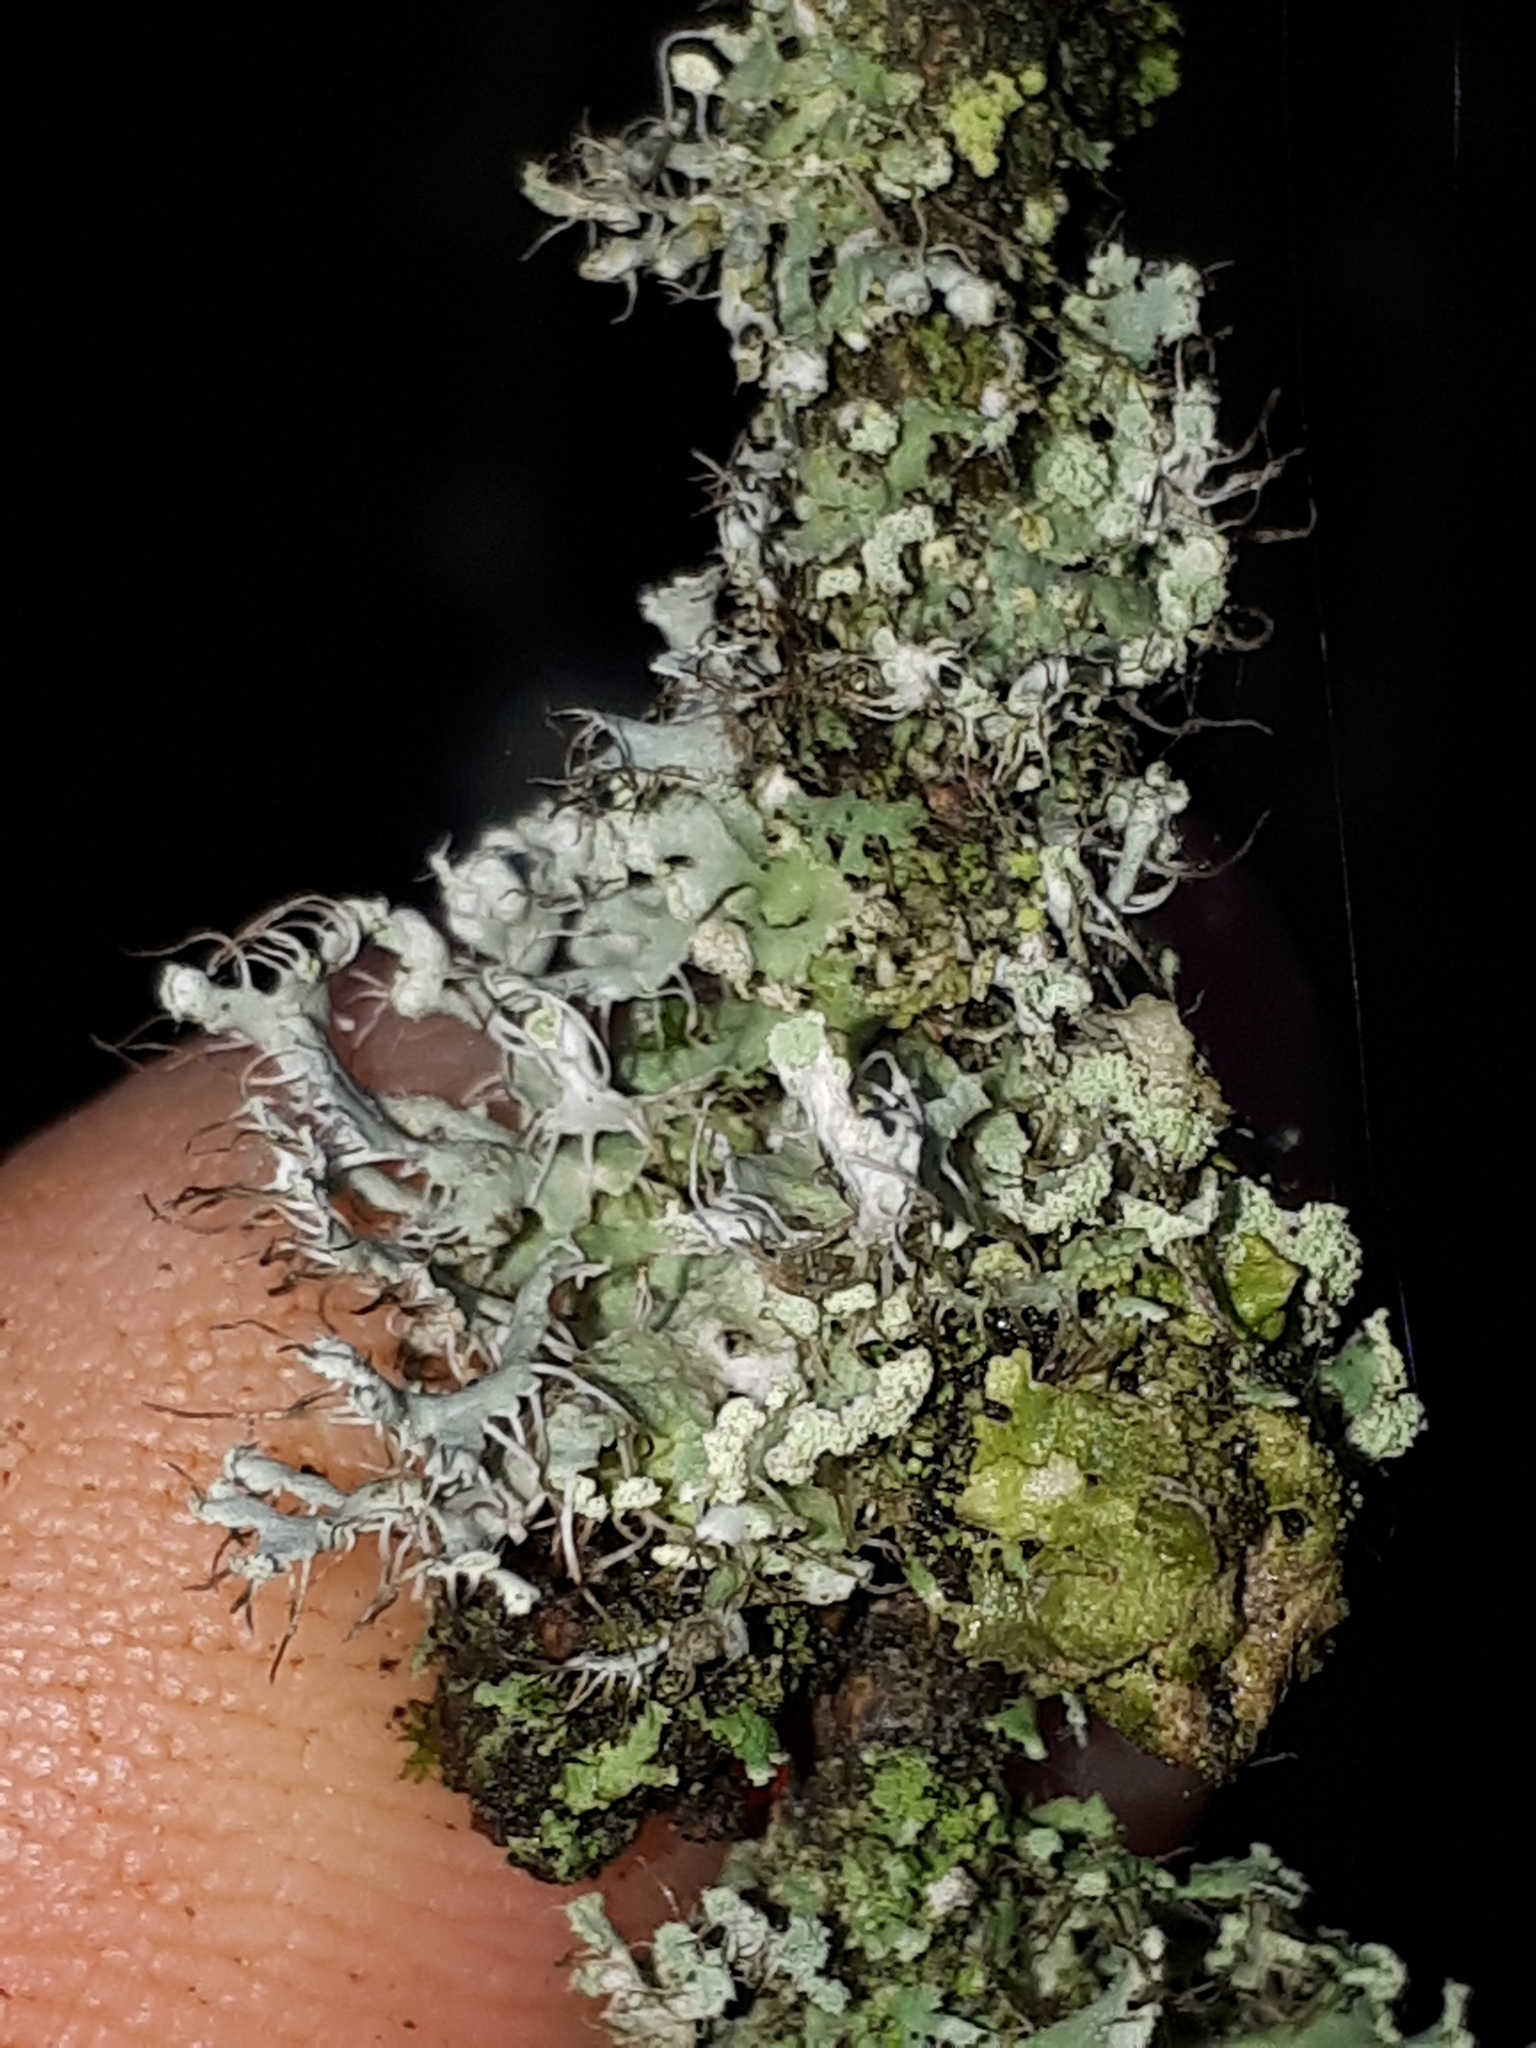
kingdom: Fungi
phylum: Ascomycota
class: Lecanoromycetes
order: Caliciales
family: Physciaceae
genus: Physcia
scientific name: Physcia adscendens
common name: Hooded rosette lichen
